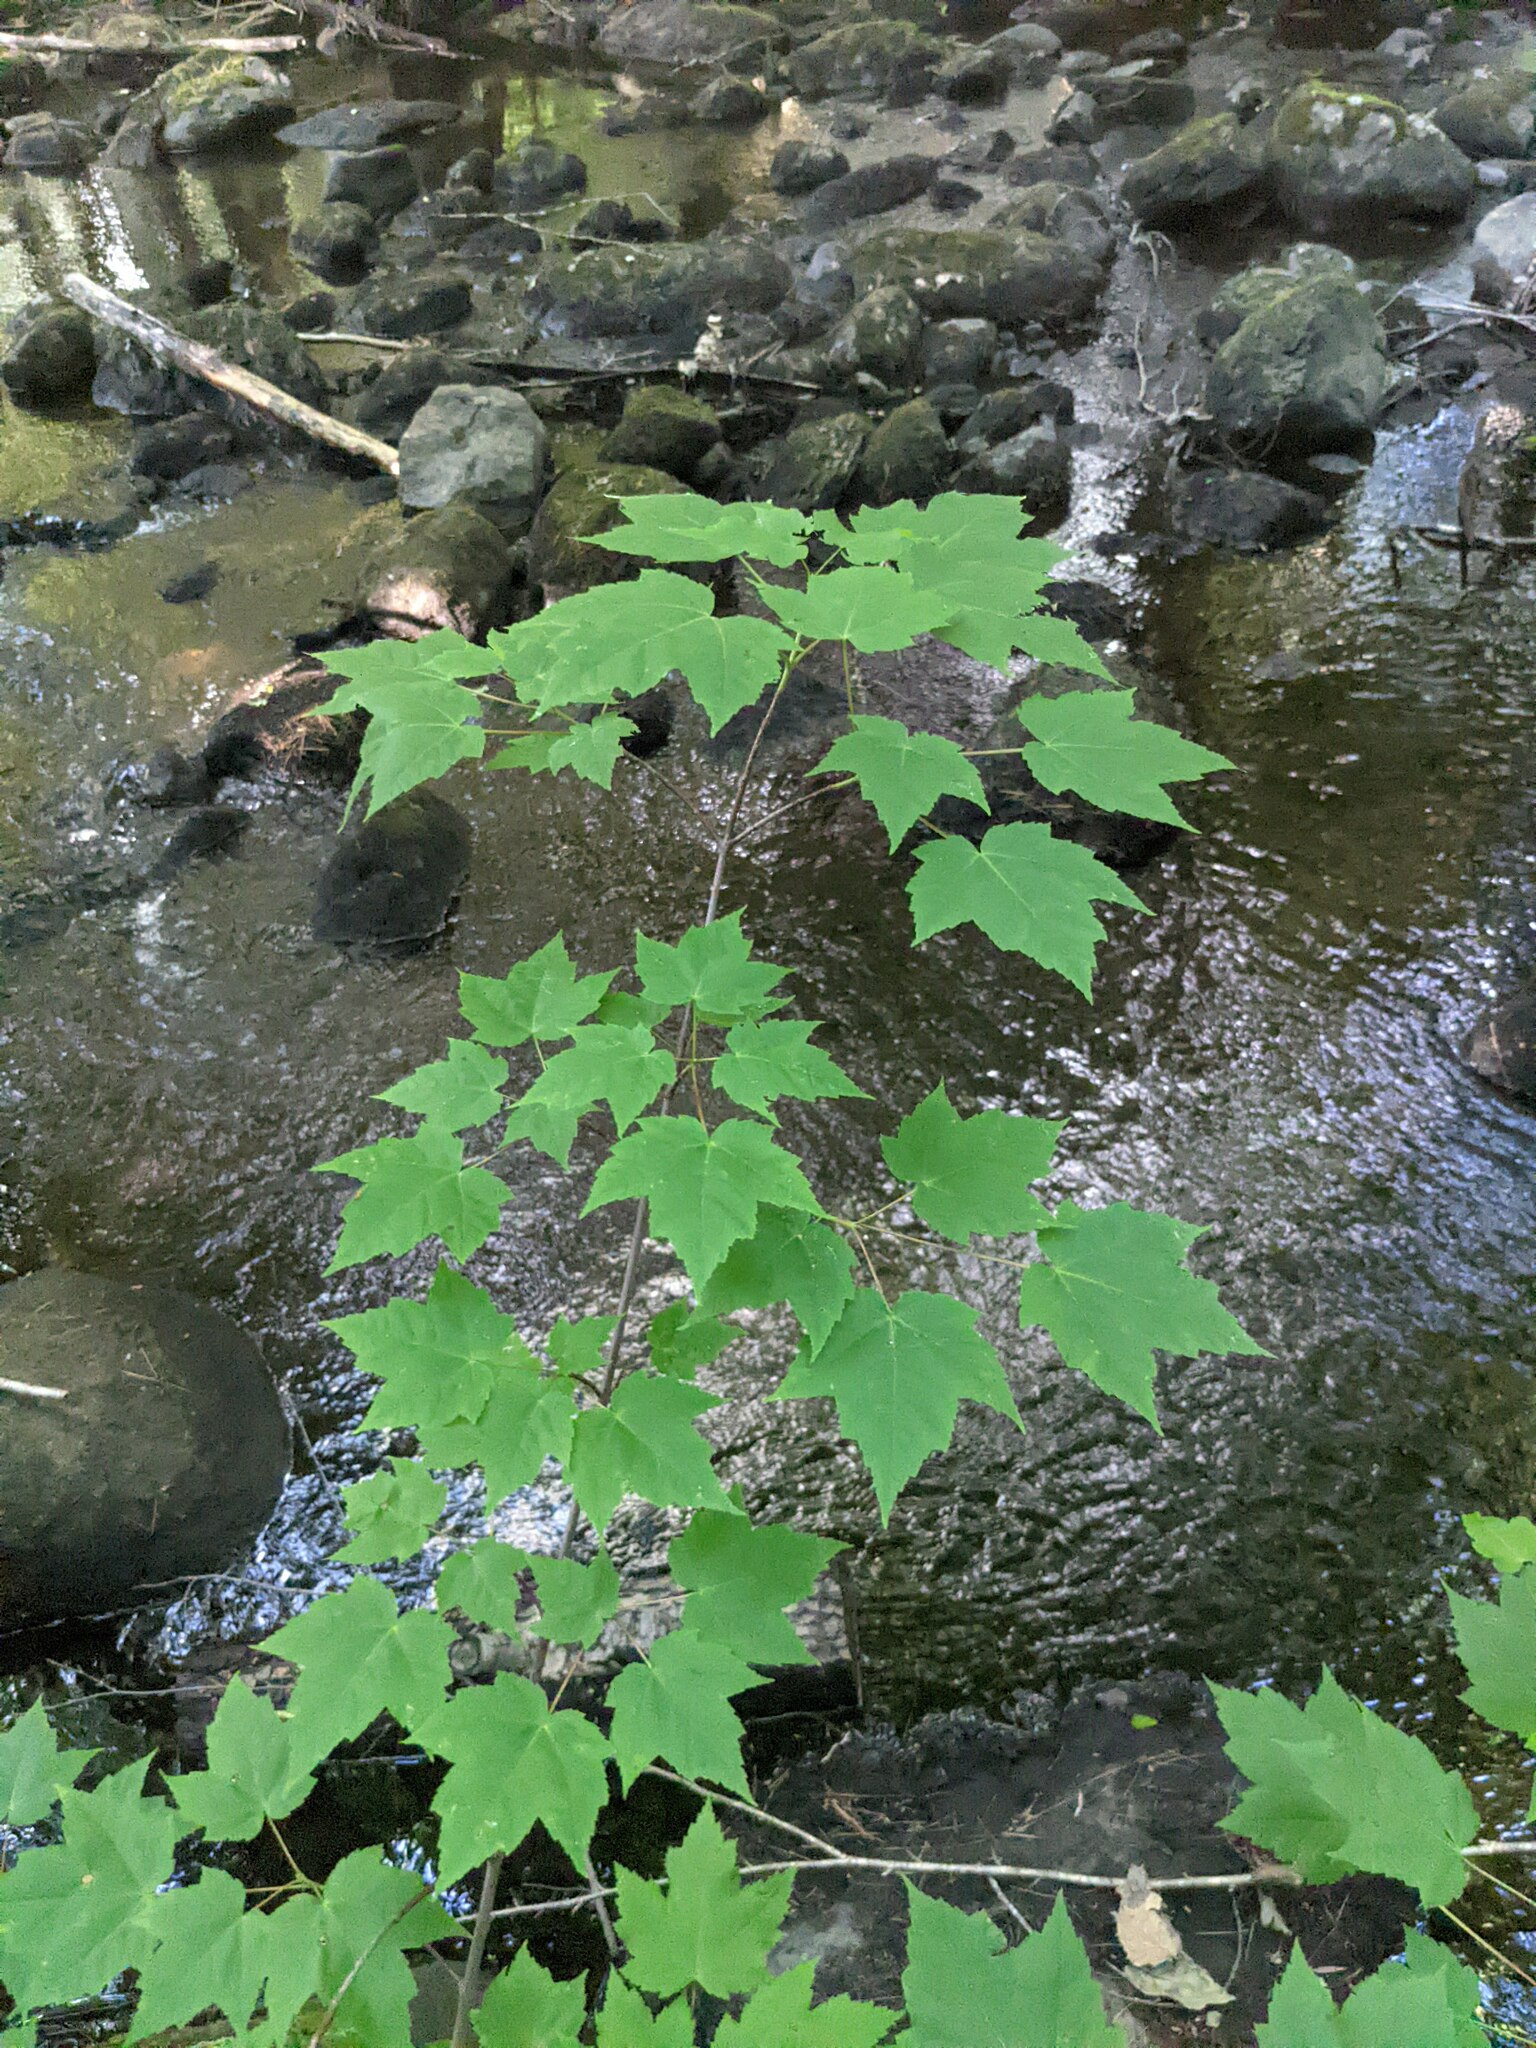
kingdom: Plantae
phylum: Tracheophyta
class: Magnoliopsida
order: Sapindales
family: Sapindaceae
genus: Acer
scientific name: Acer rubrum
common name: Red maple
